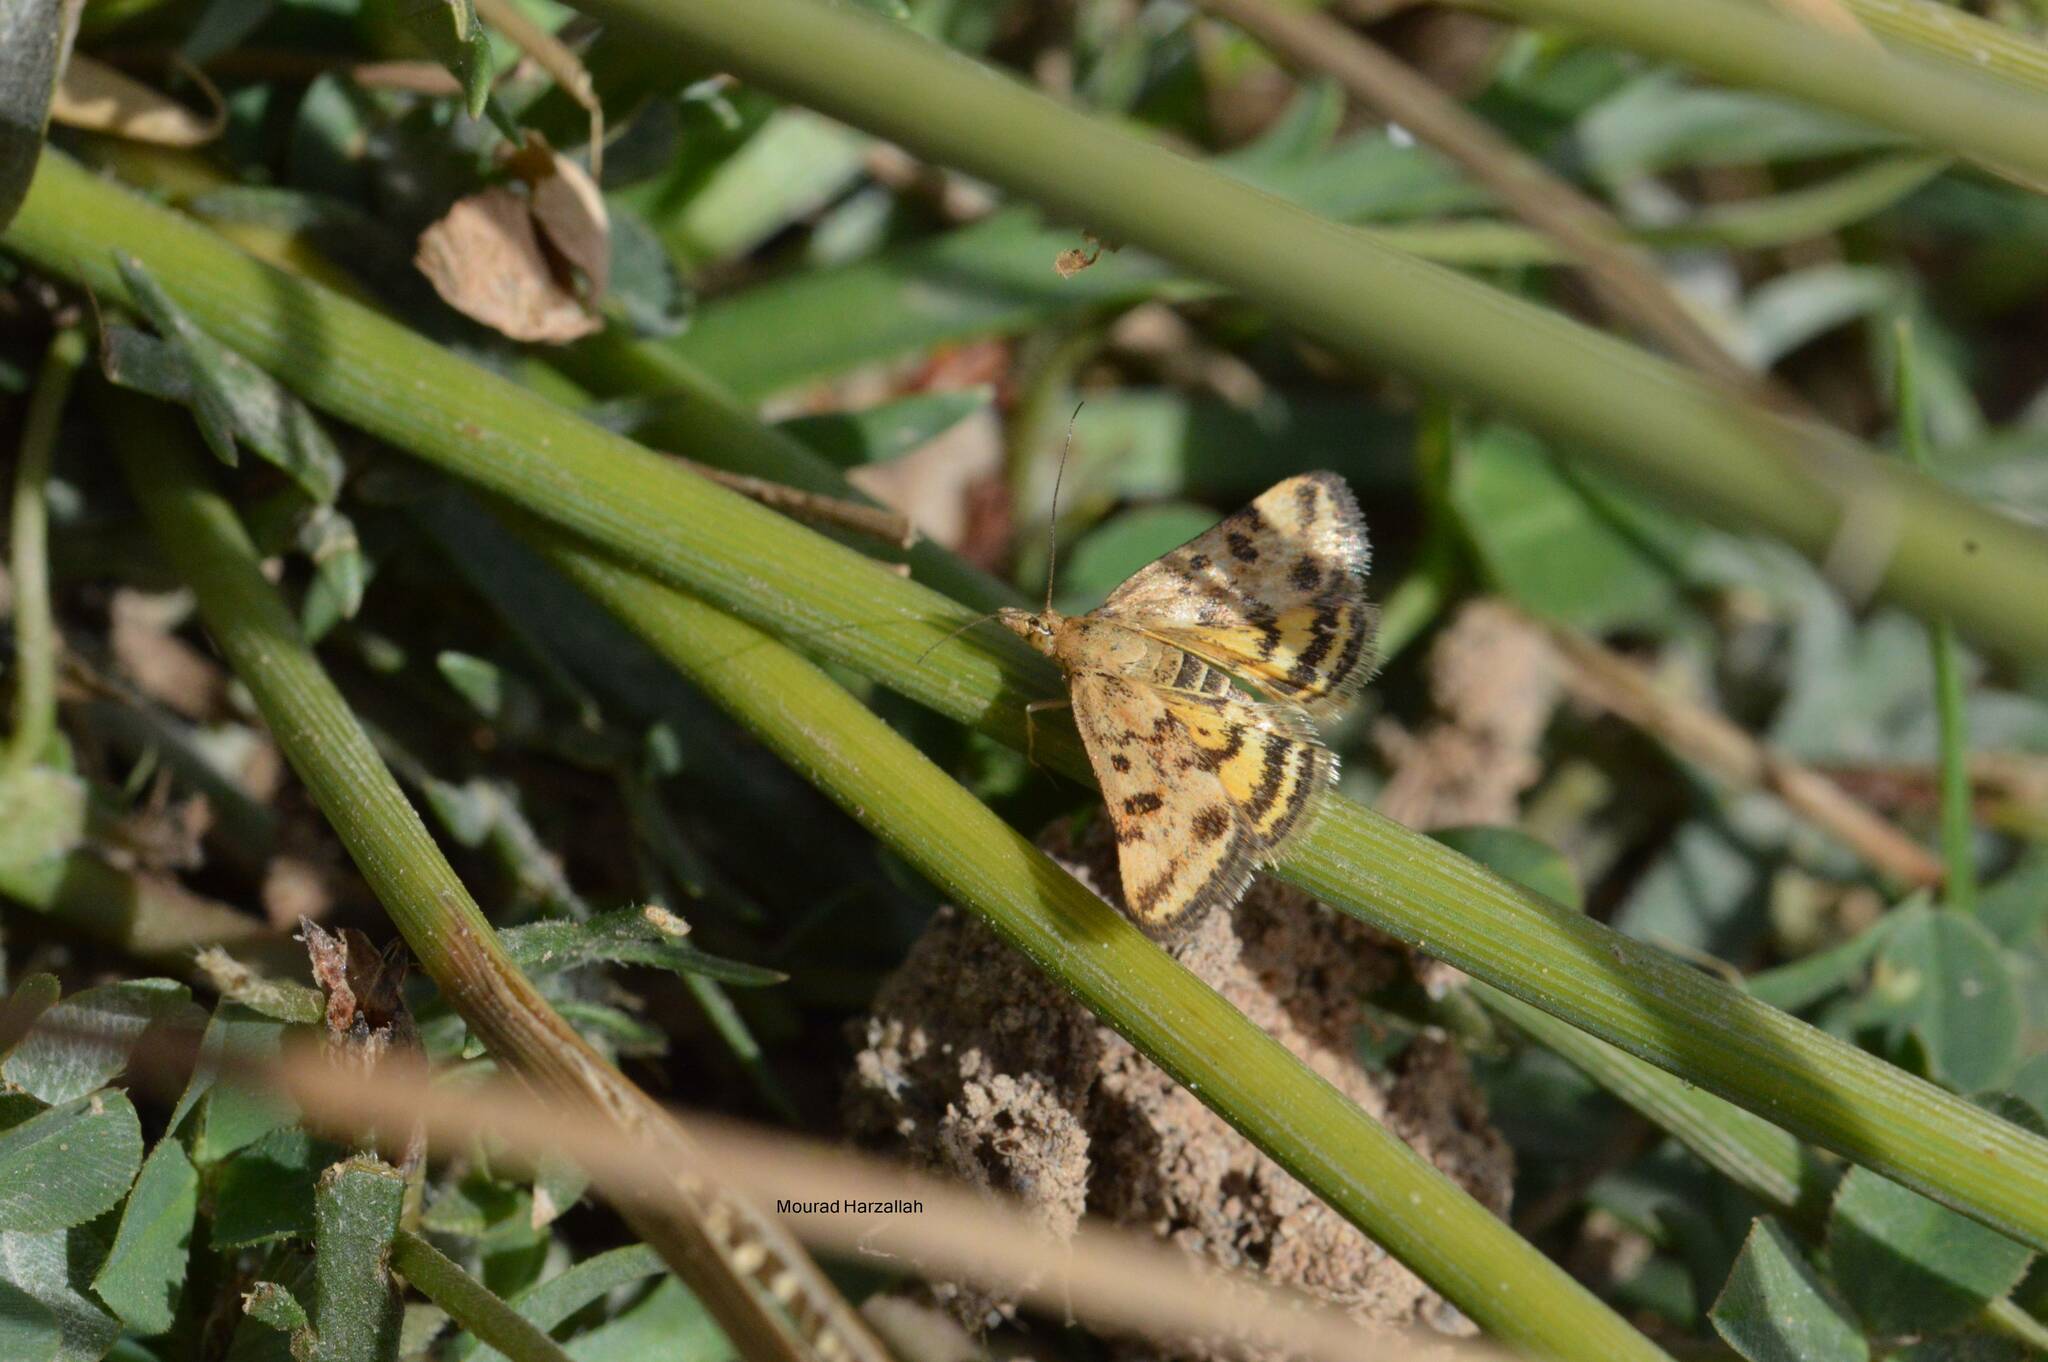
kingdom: Animalia
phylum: Arthropoda
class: Insecta
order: Lepidoptera
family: Crambidae
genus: Pyrausta
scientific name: Pyrausta despicata
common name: Straw-barred pearl
